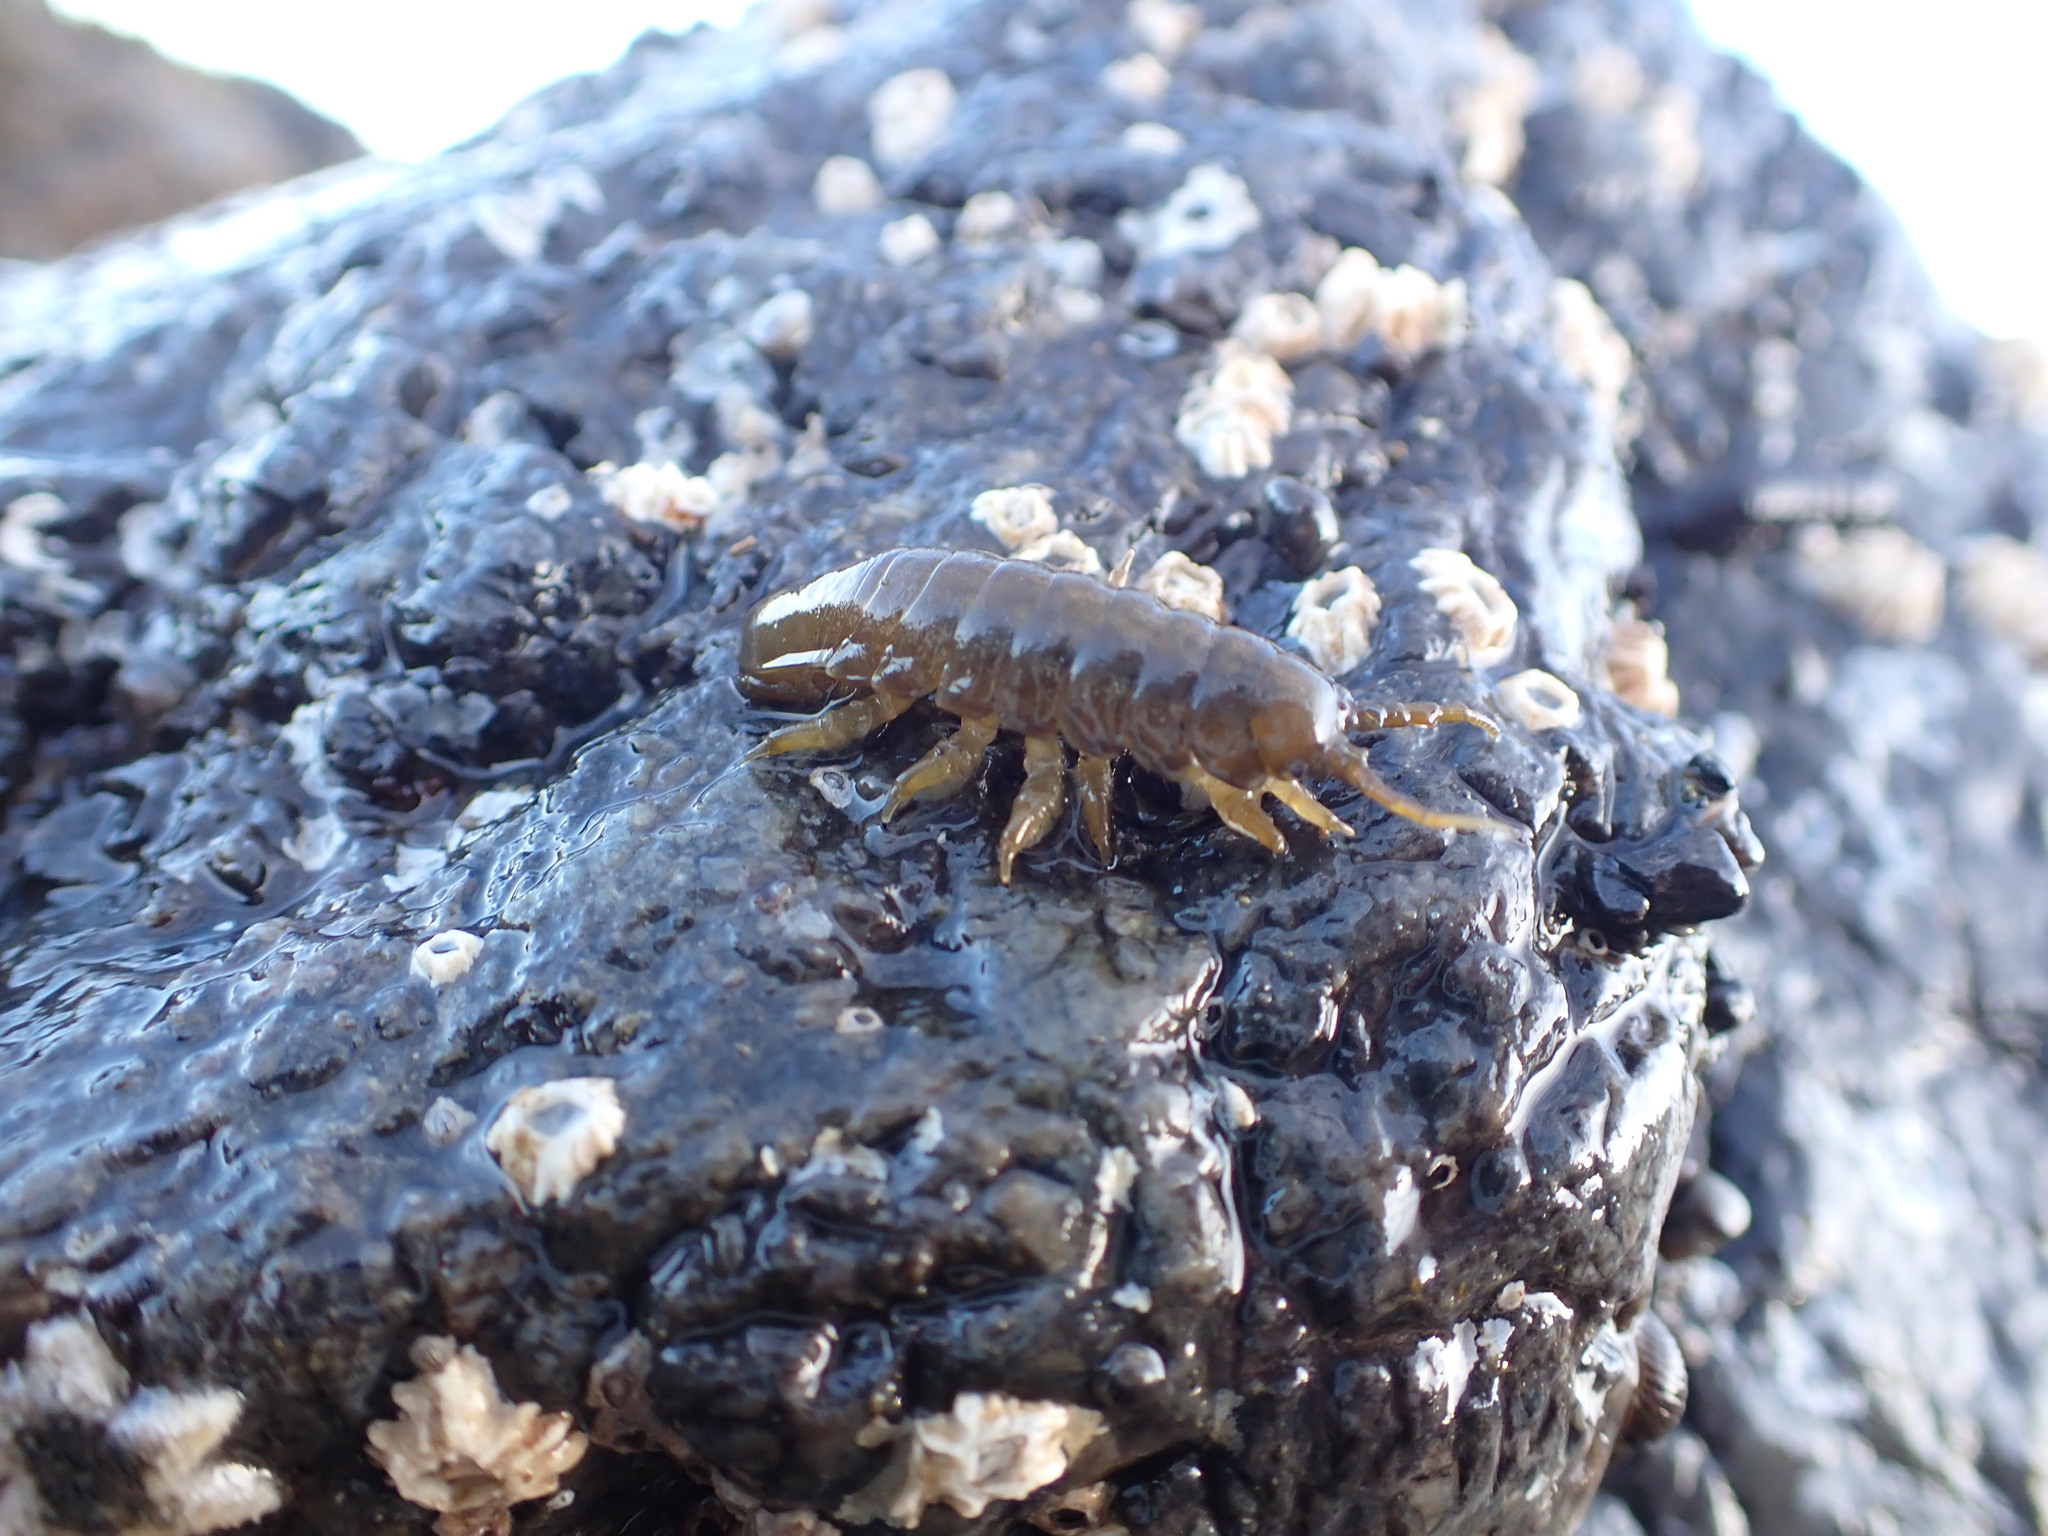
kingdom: Animalia
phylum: Arthropoda
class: Malacostraca
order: Isopoda
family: Idoteidae
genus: Pentidotea
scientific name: Pentidotea wosnesenskii
